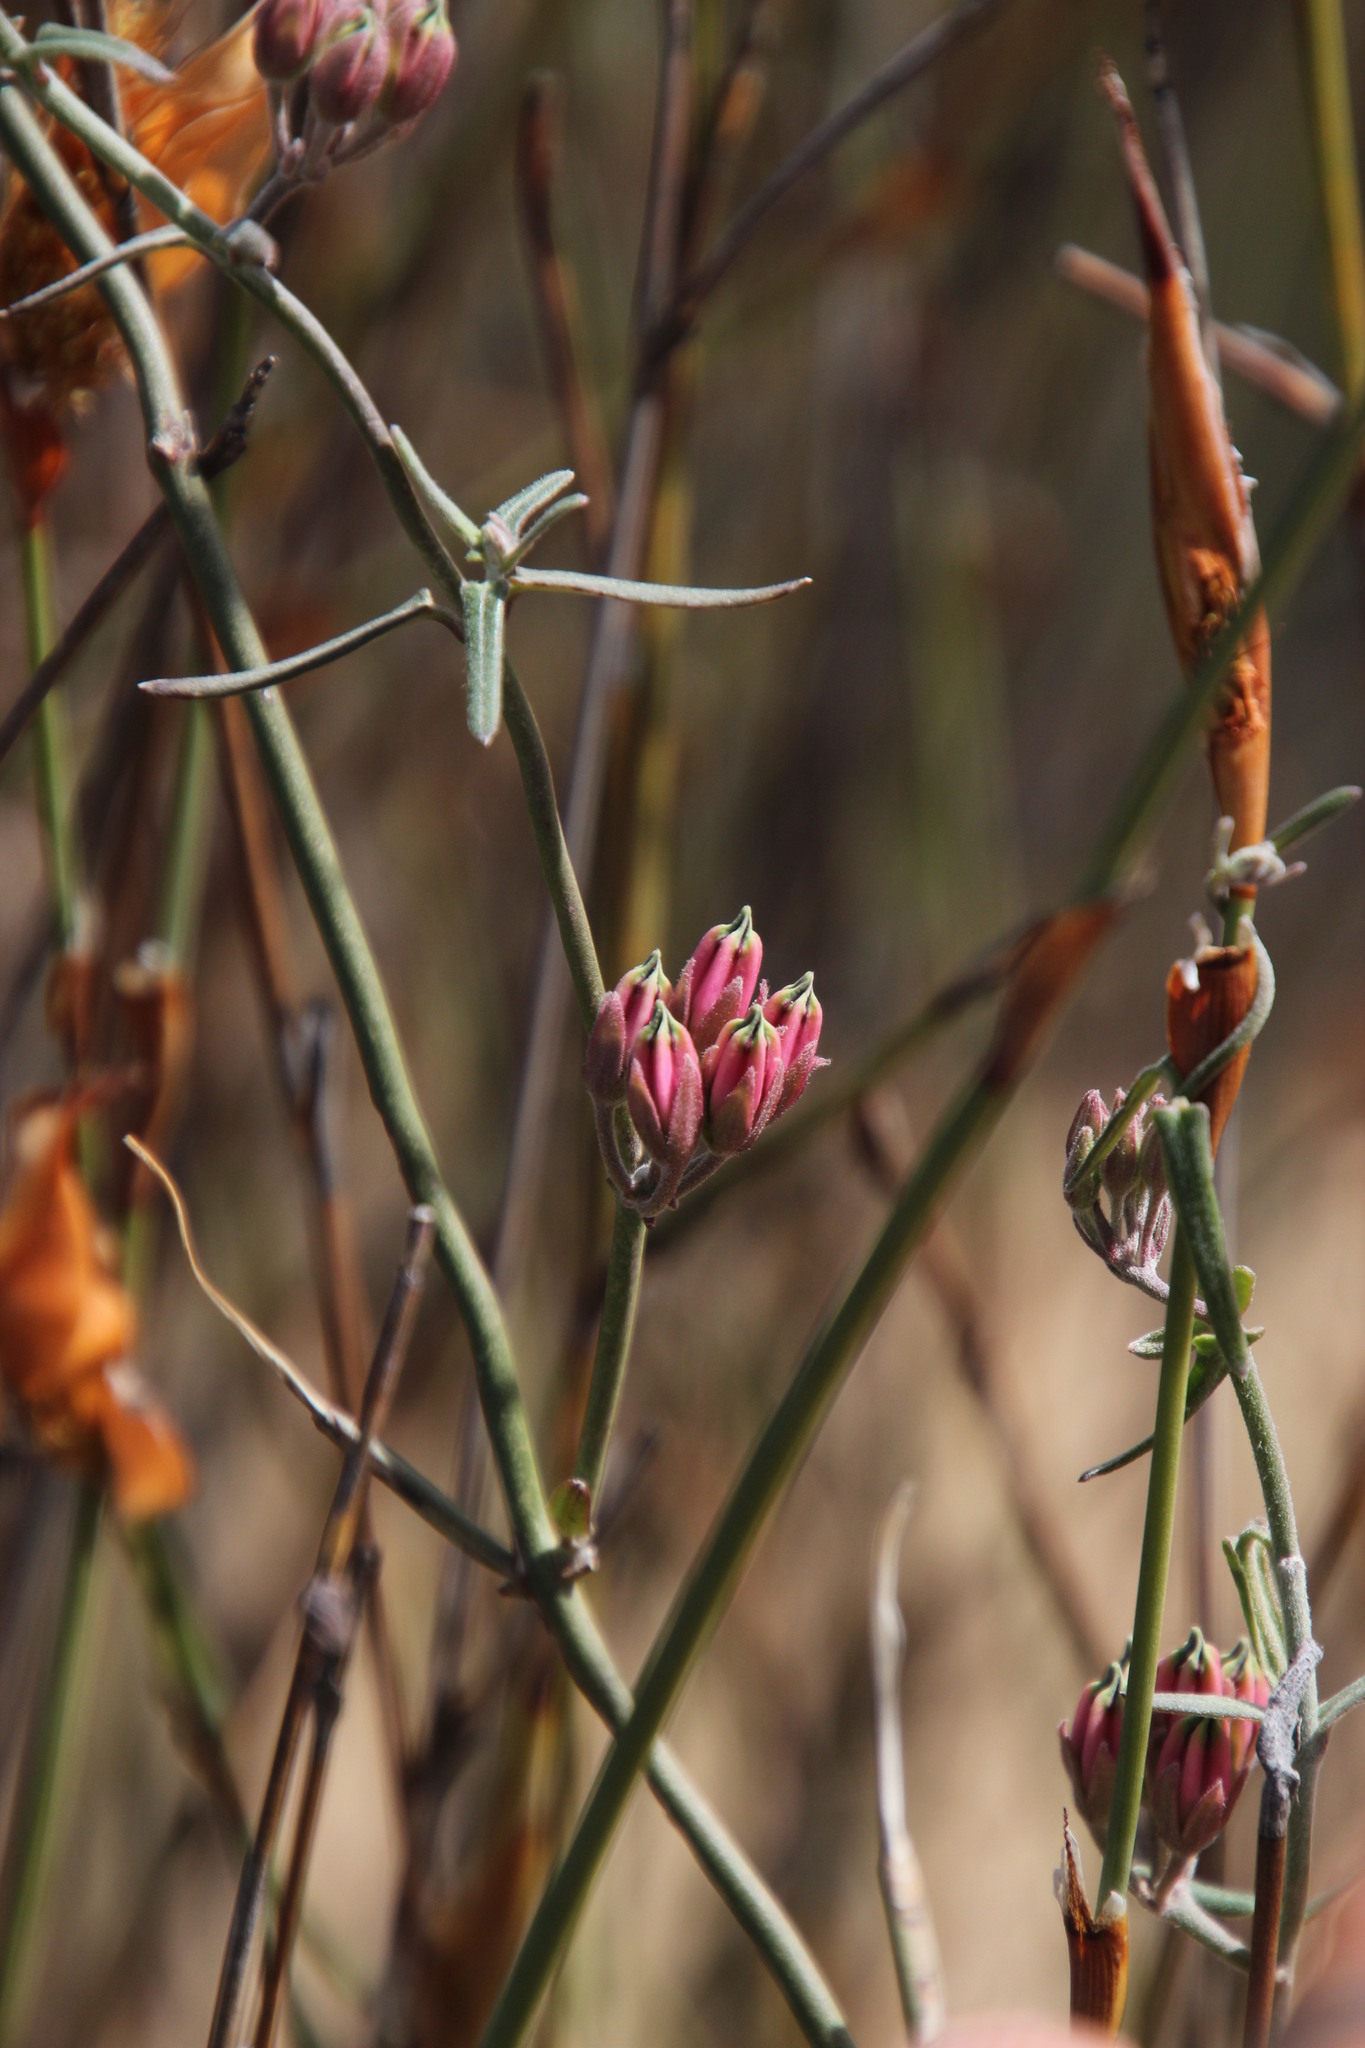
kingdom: Plantae
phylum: Tracheophyta
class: Magnoliopsida
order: Gentianales
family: Apocynaceae
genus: Microloma
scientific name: Microloma sagittatum
